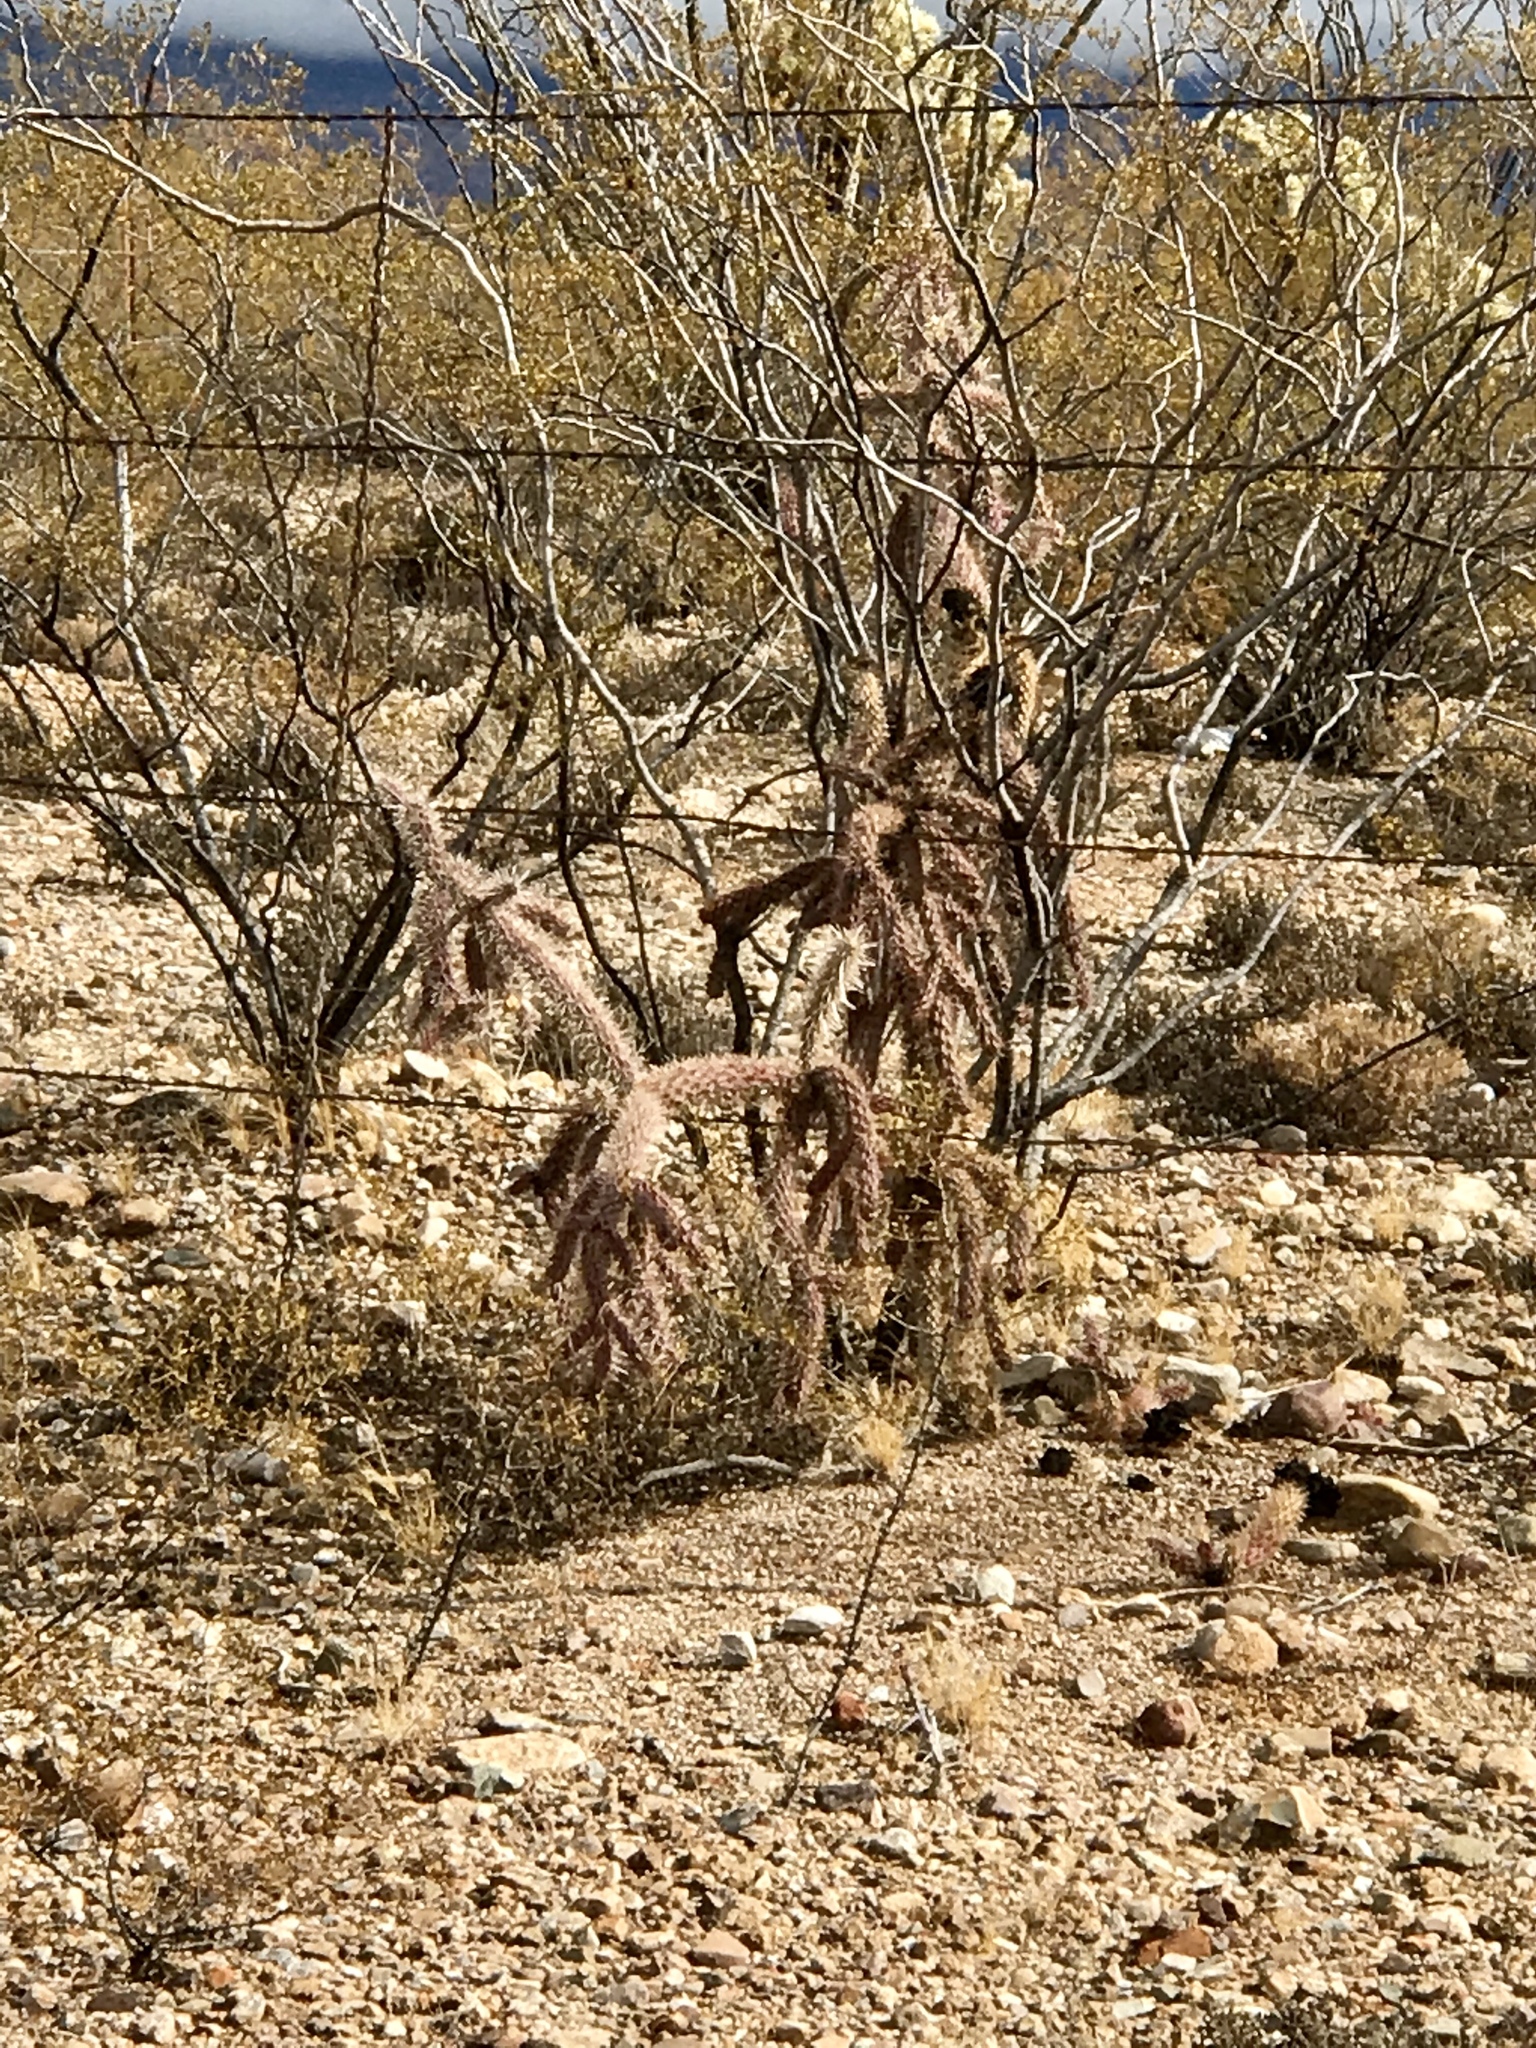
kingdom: Plantae
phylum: Tracheophyta
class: Magnoliopsida
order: Caryophyllales
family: Cactaceae
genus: Cylindropuntia
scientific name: Cylindropuntia thurberi
